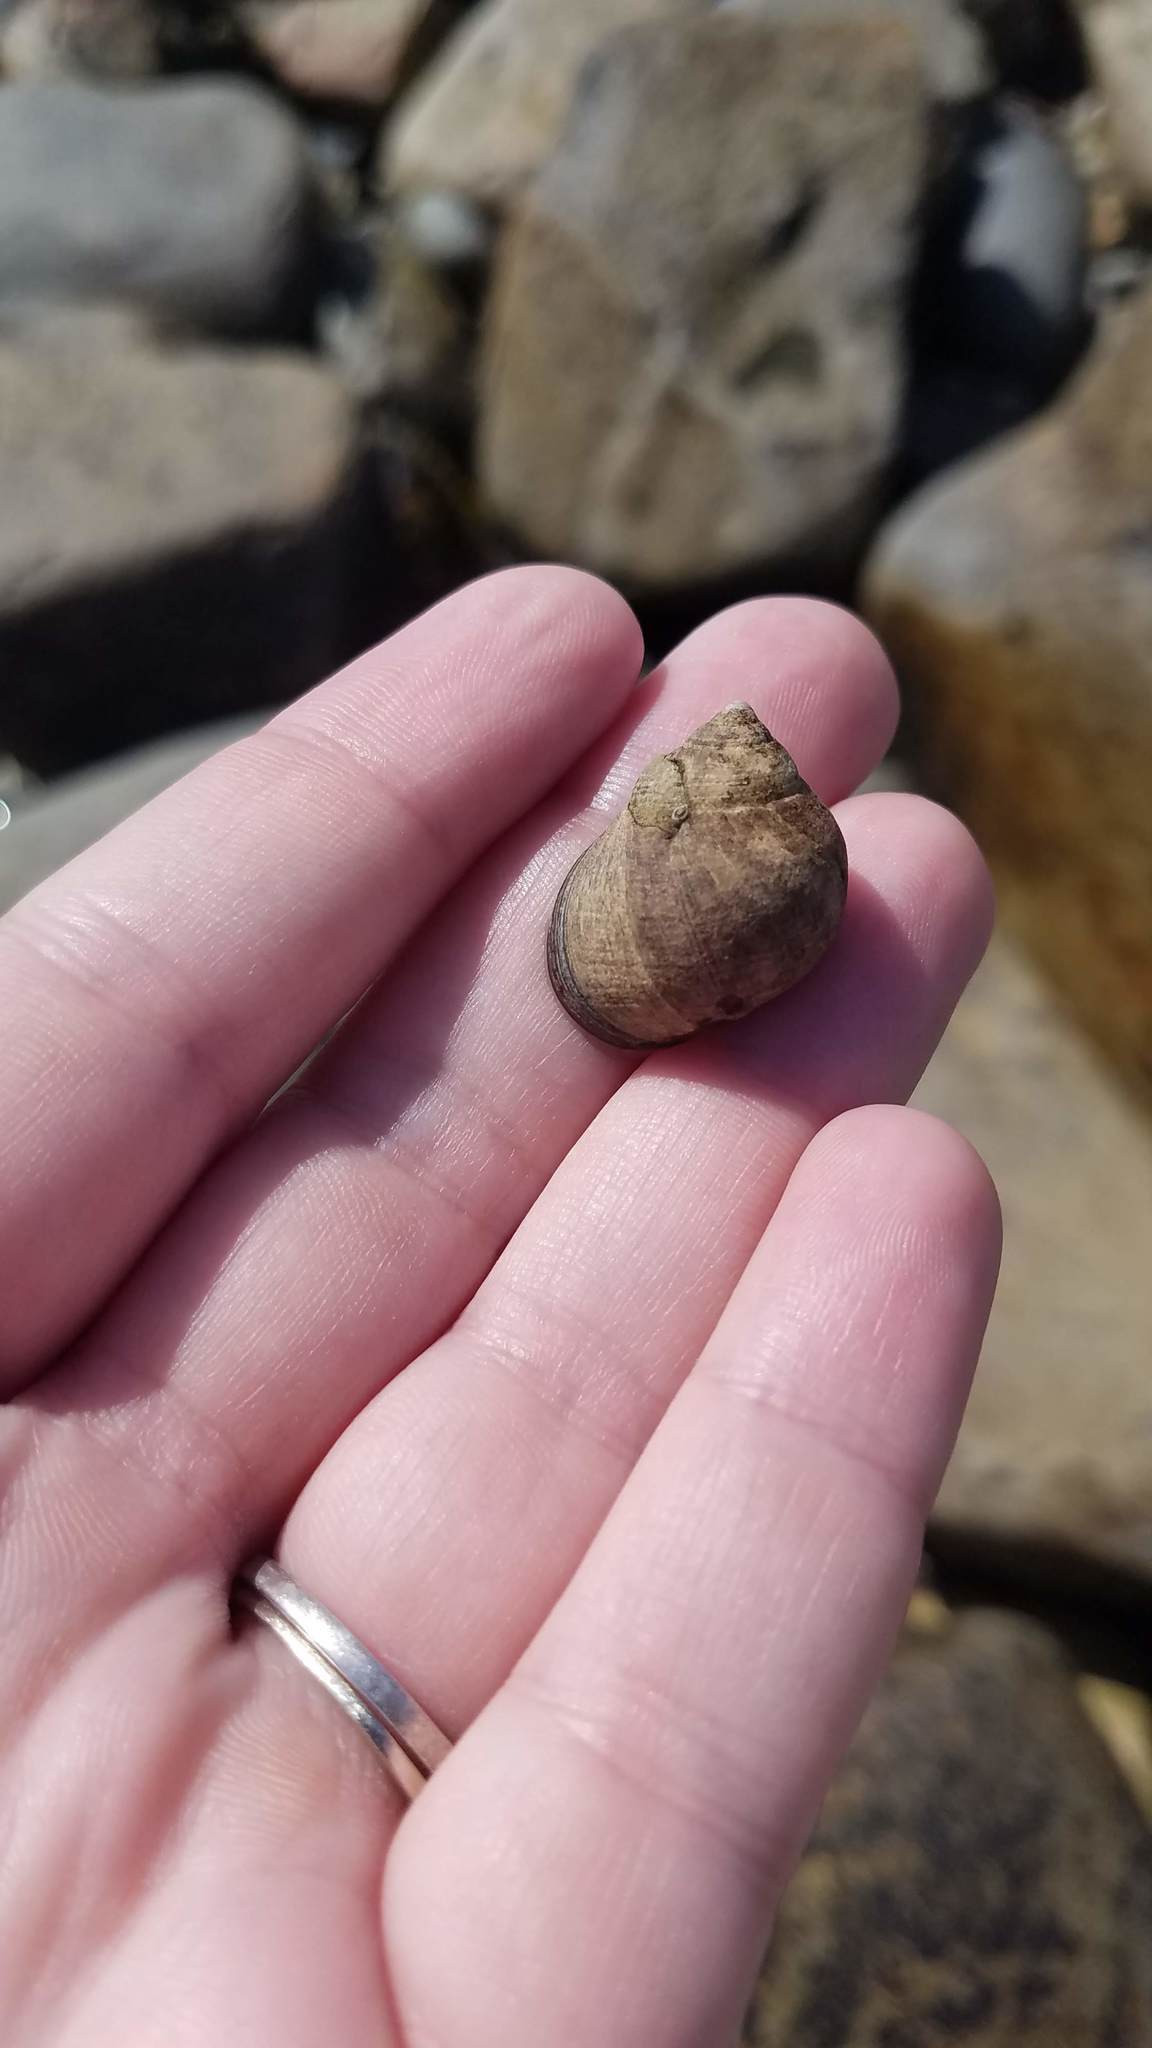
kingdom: Animalia
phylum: Mollusca
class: Gastropoda
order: Littorinimorpha
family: Littorinidae
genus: Littorina
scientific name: Littorina littorea
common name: Common periwinkle
